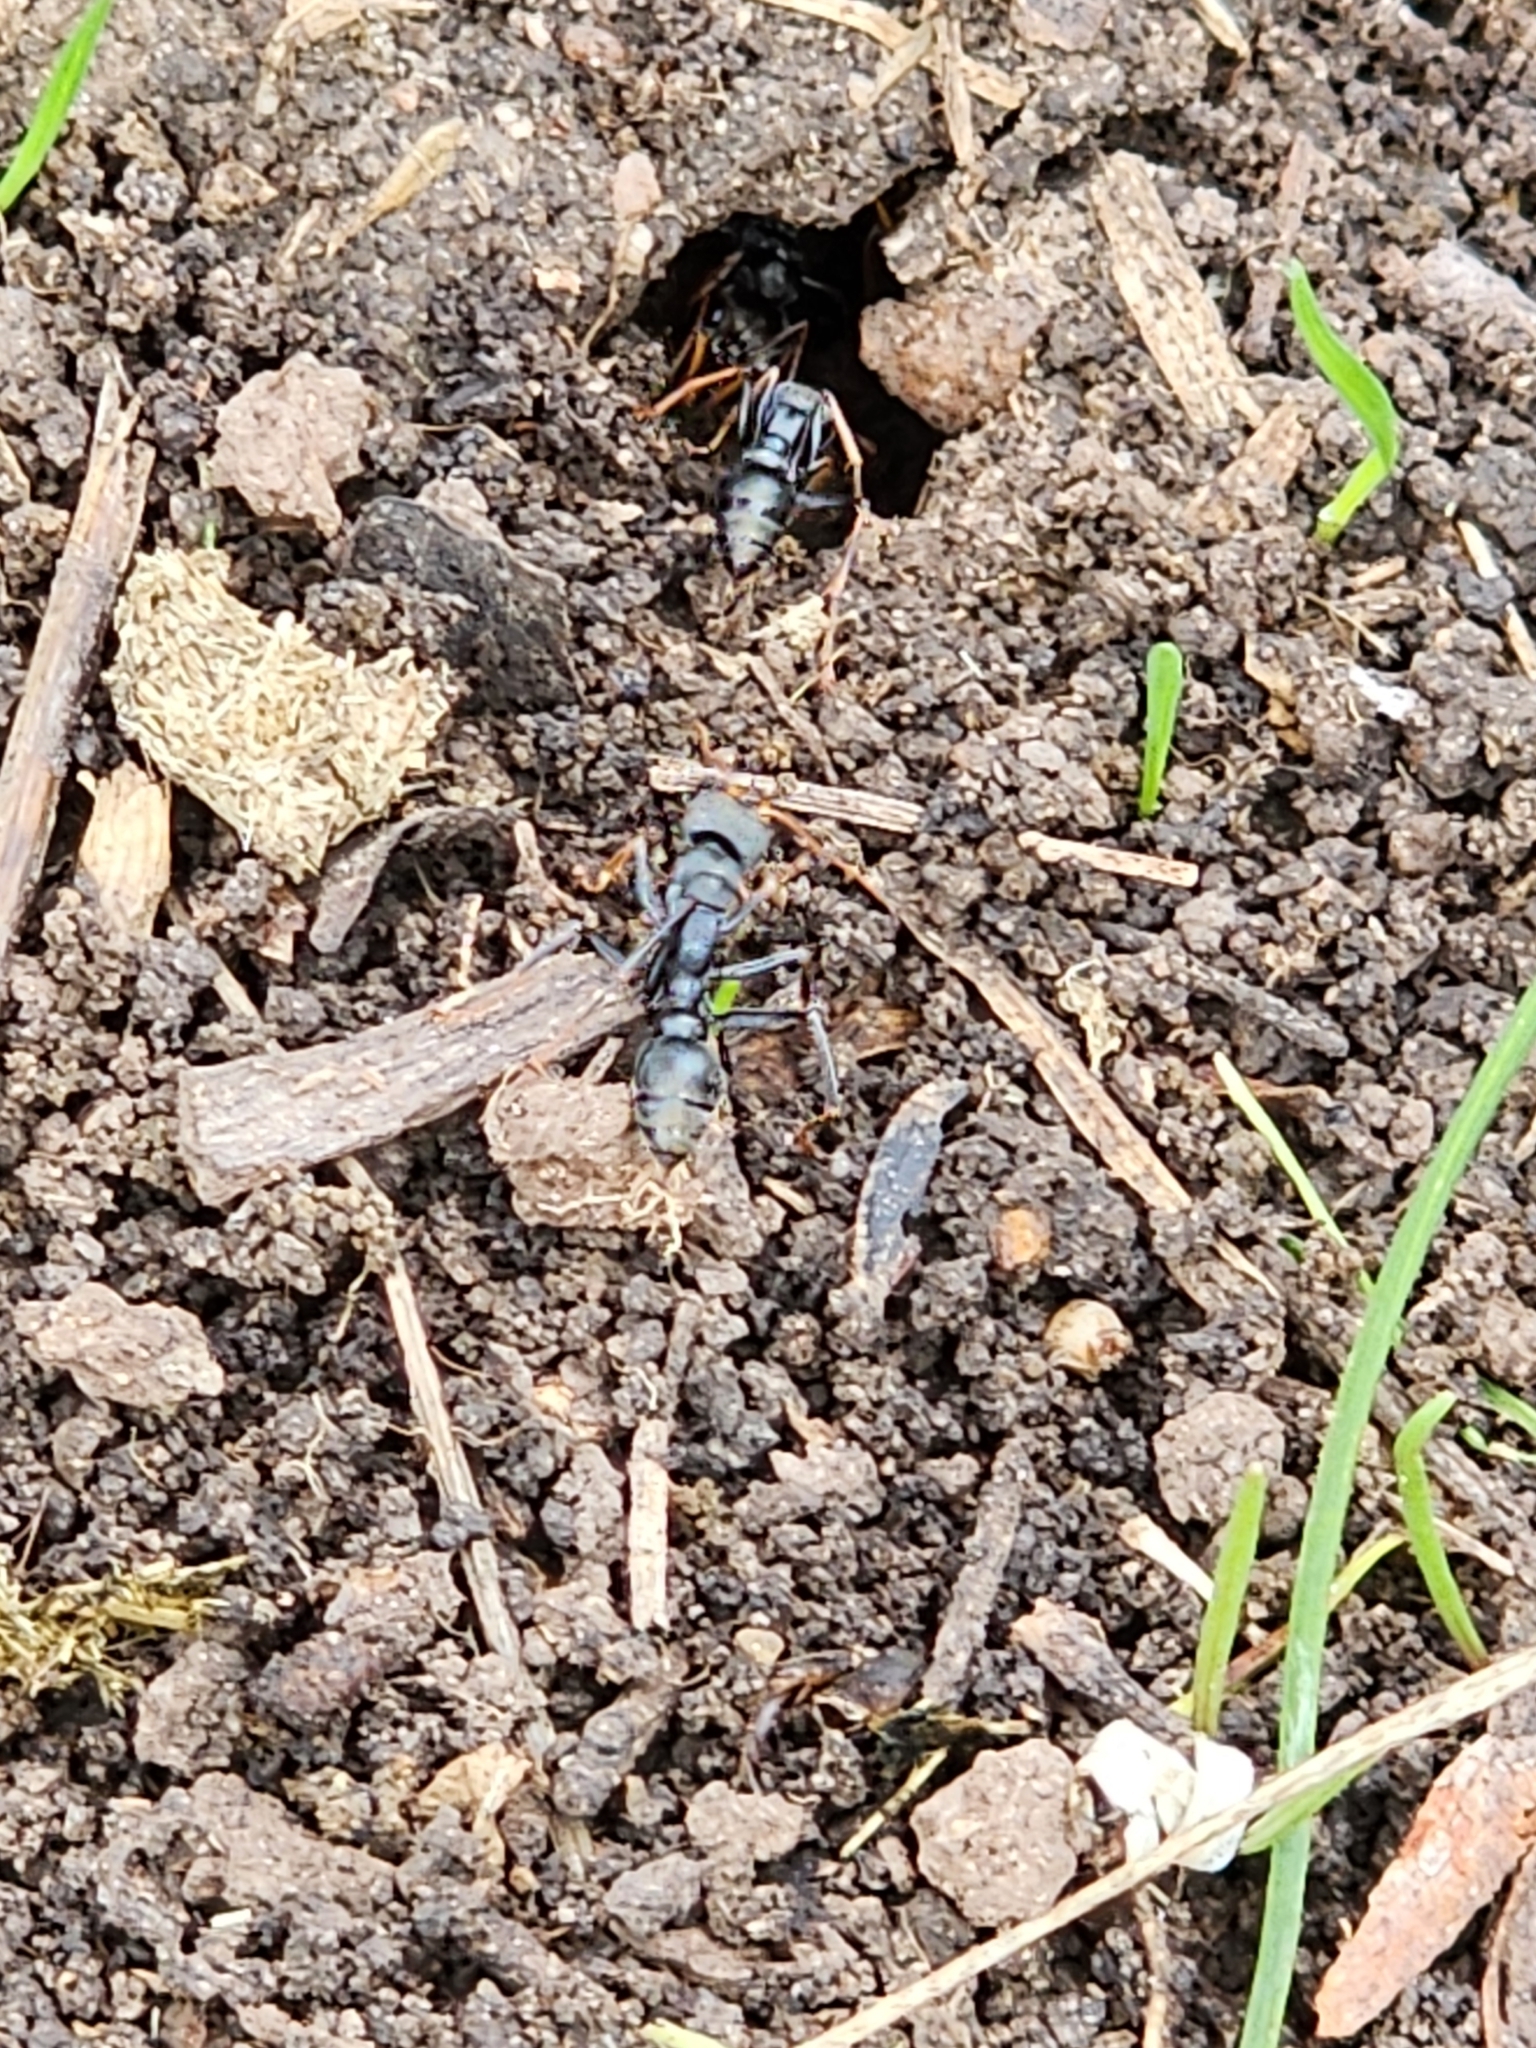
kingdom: Animalia
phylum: Arthropoda
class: Insecta
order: Hymenoptera
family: Formicidae
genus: Myrmecia
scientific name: Myrmecia pilosula
